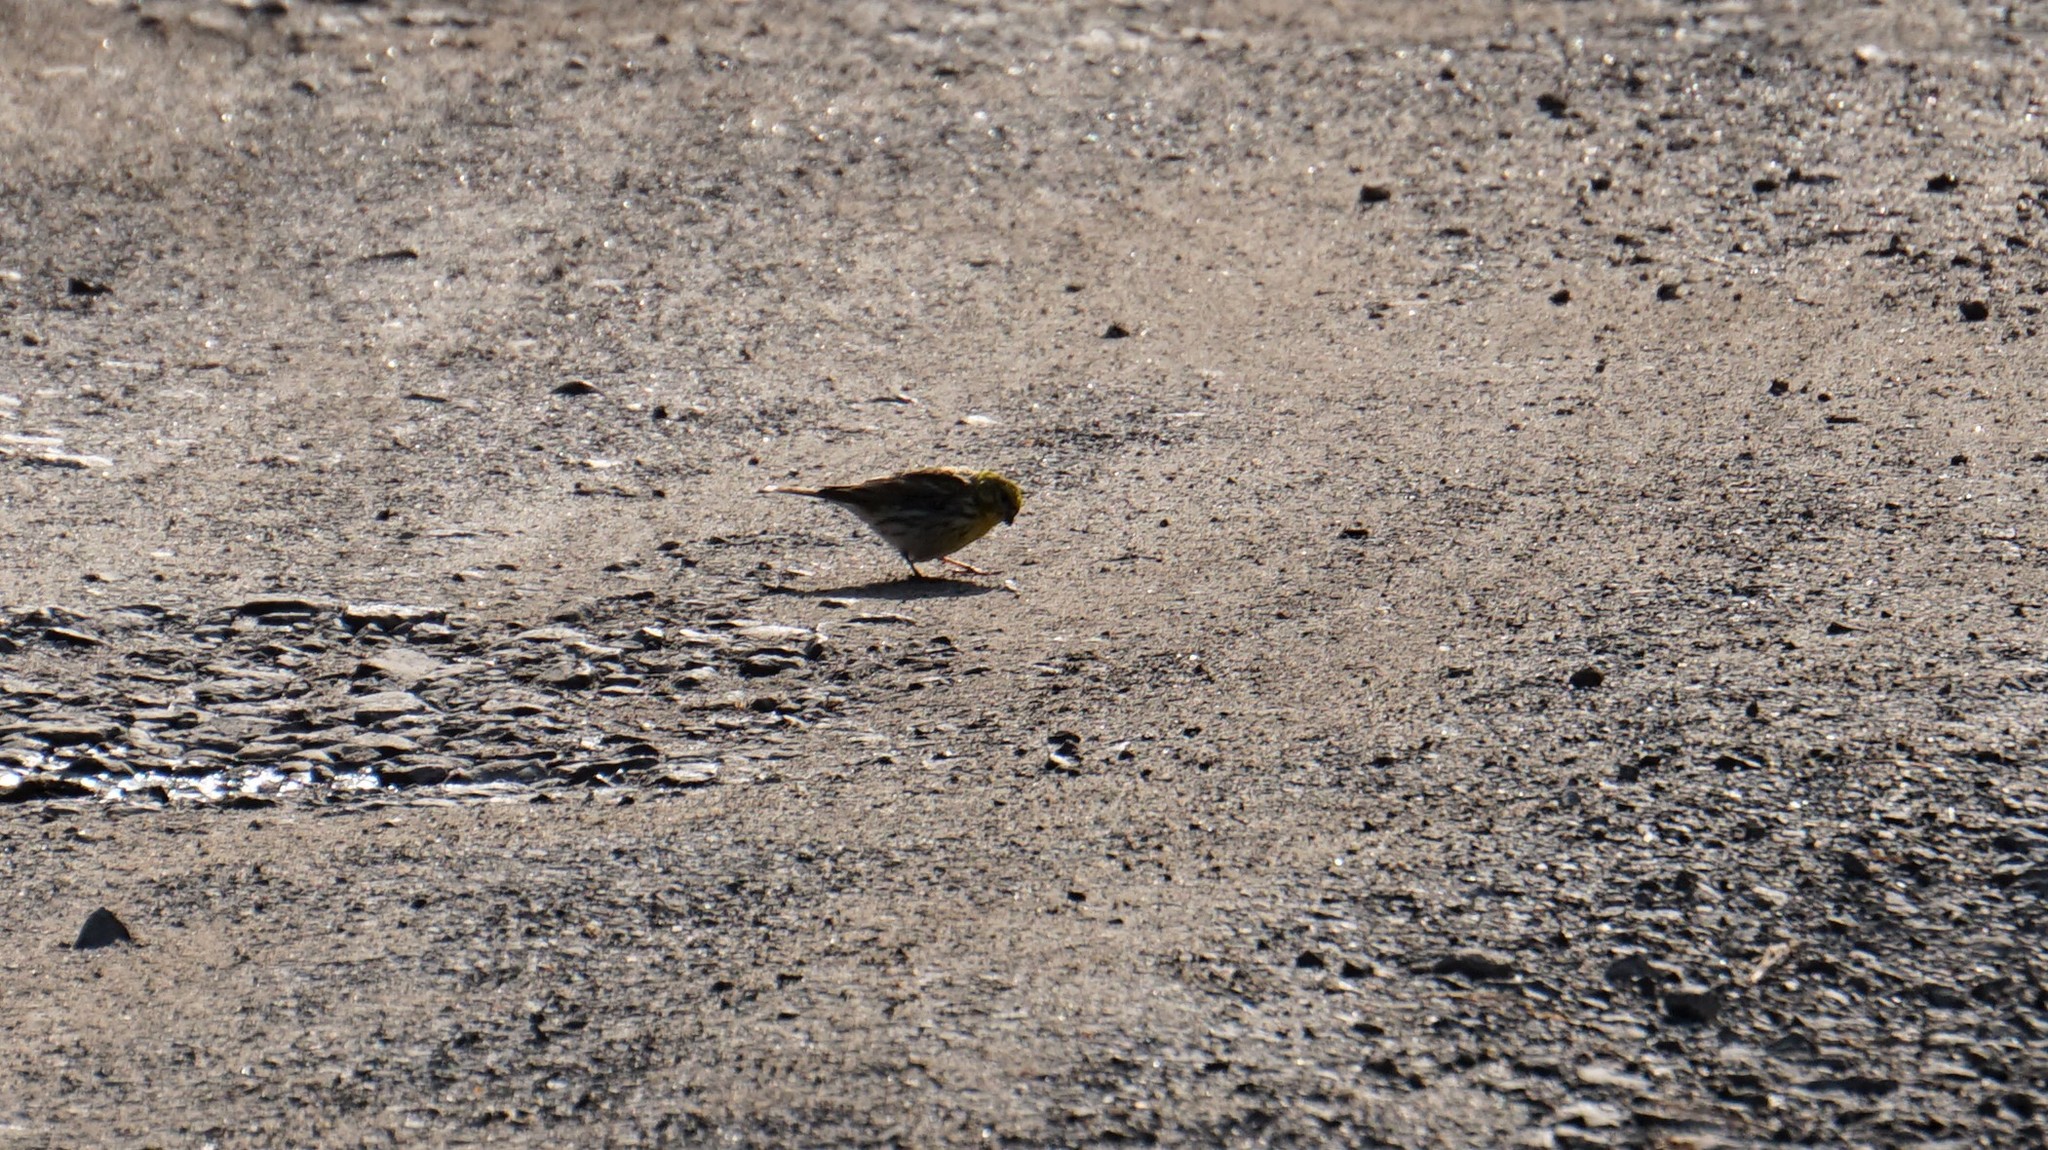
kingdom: Animalia
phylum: Chordata
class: Aves
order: Passeriformes
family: Fringillidae
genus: Serinus
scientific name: Serinus serinus
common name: European serin
